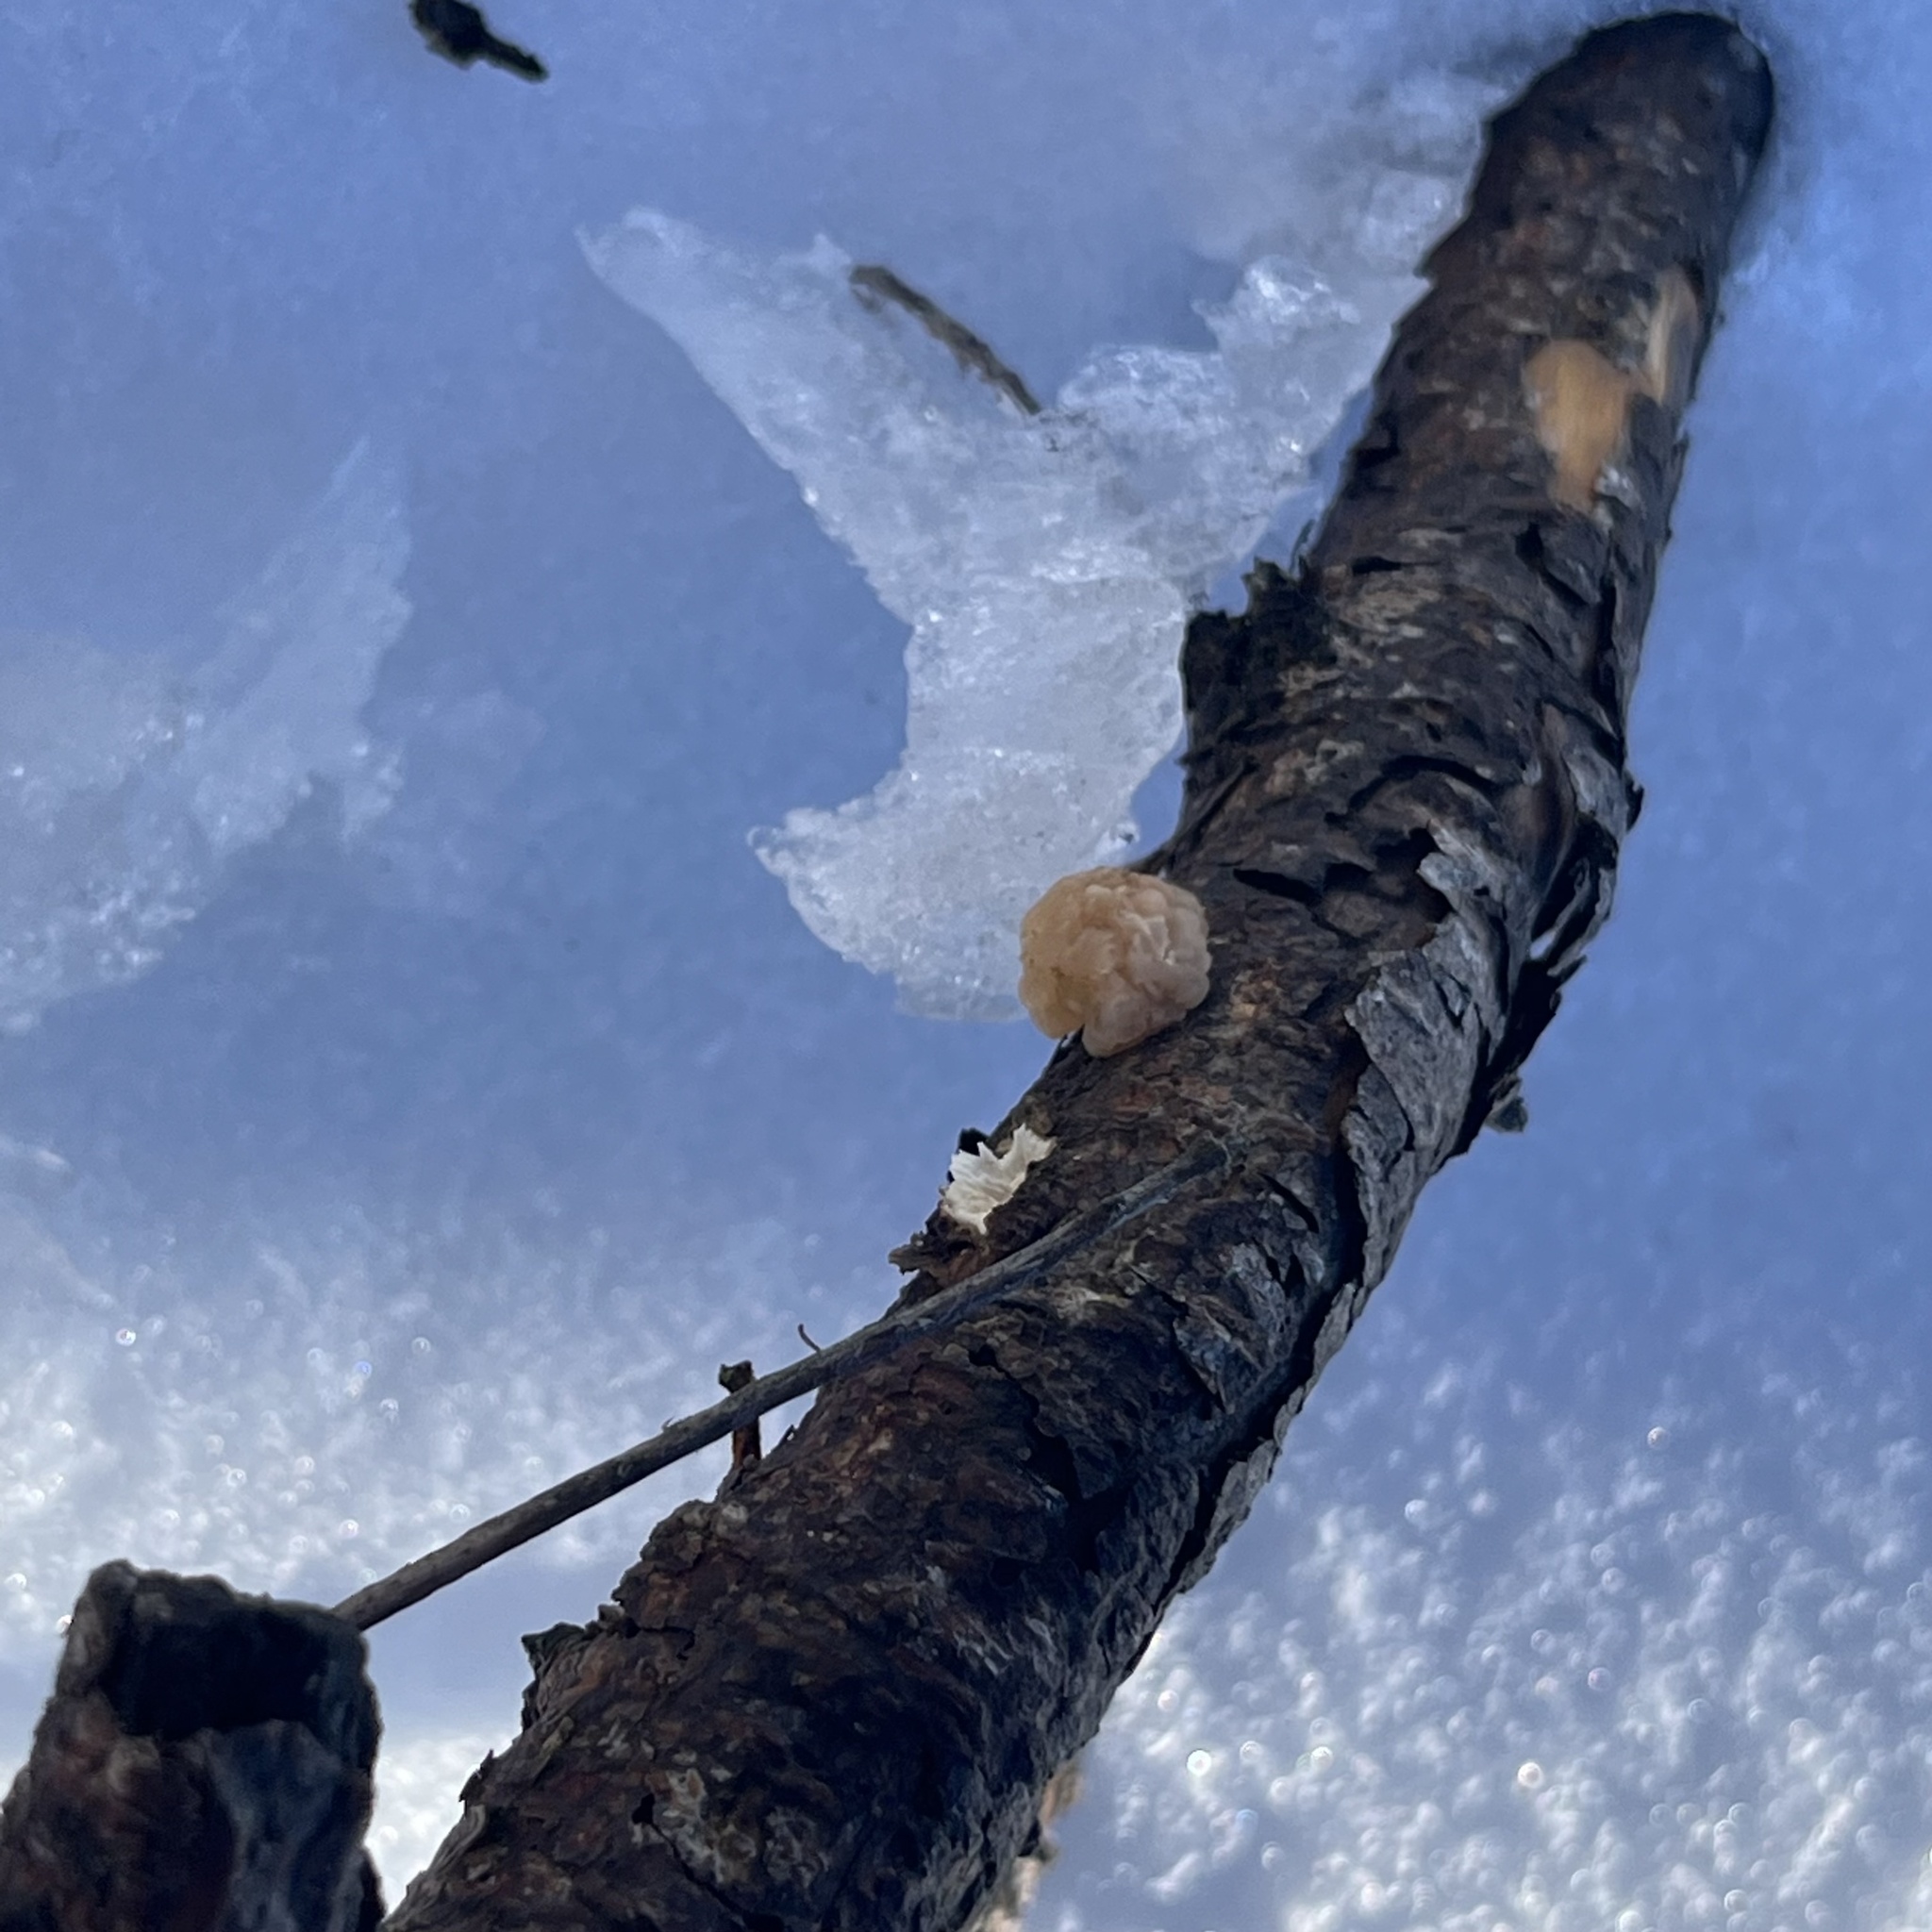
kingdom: Fungi
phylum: Basidiomycota
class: Tremellomycetes
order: Tremellales
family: Naemateliaceae
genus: Naematelia
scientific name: Naematelia encephala
